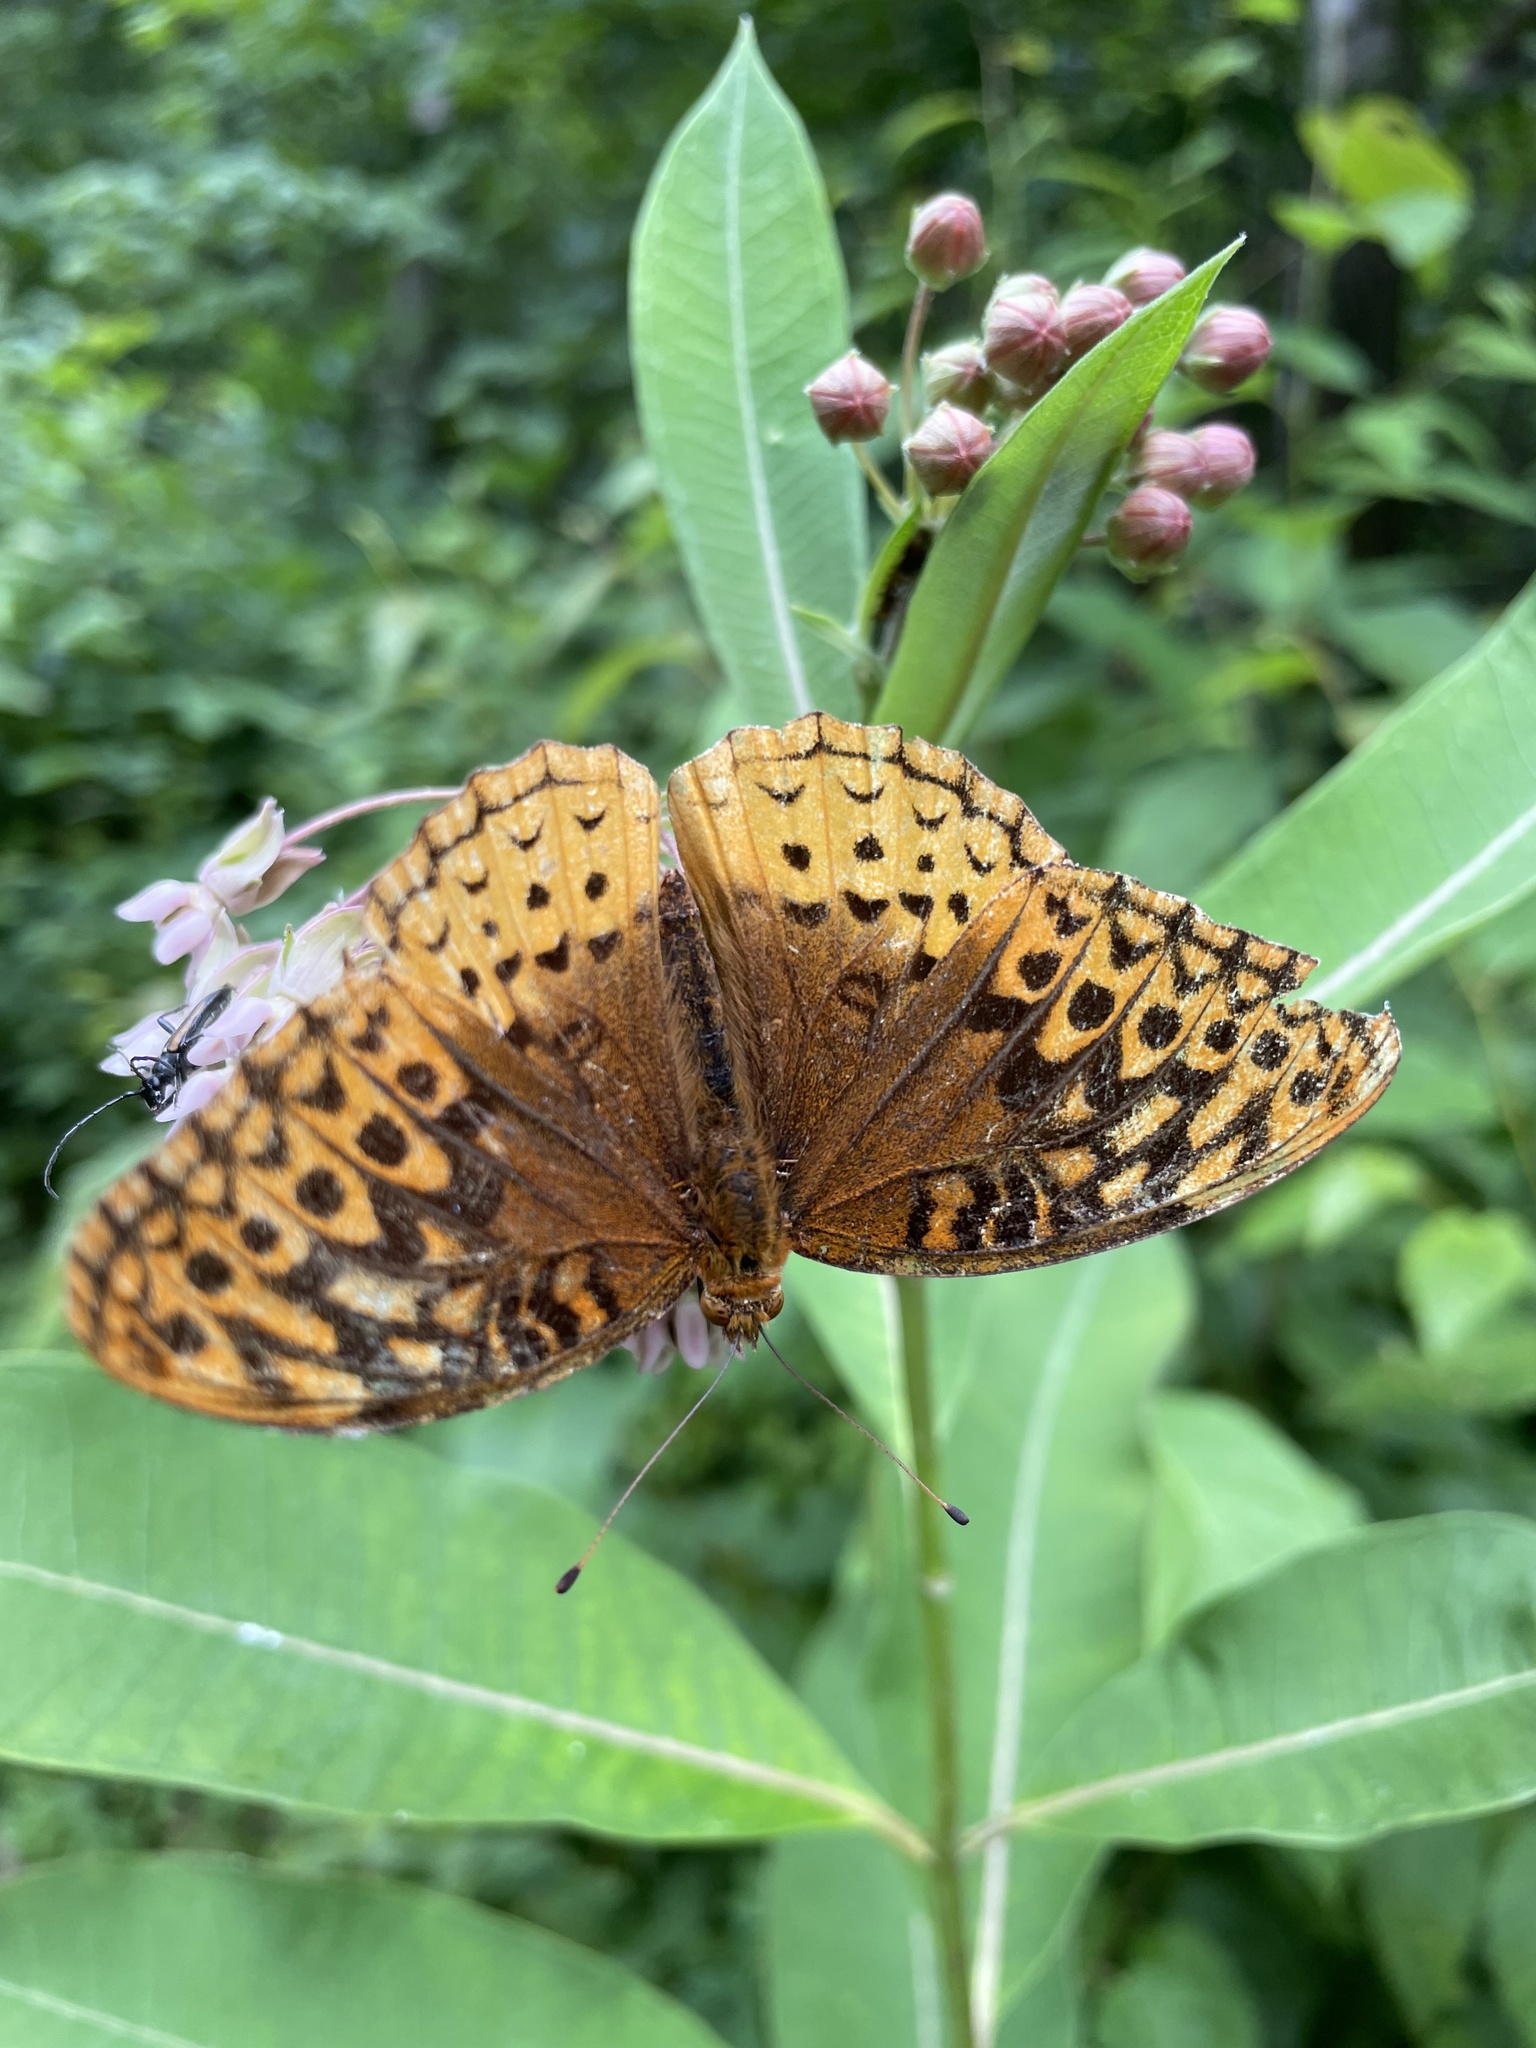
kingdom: Animalia
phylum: Arthropoda
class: Insecta
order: Lepidoptera
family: Nymphalidae
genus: Speyeria
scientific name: Speyeria cybele
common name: Great spangled fritillary
